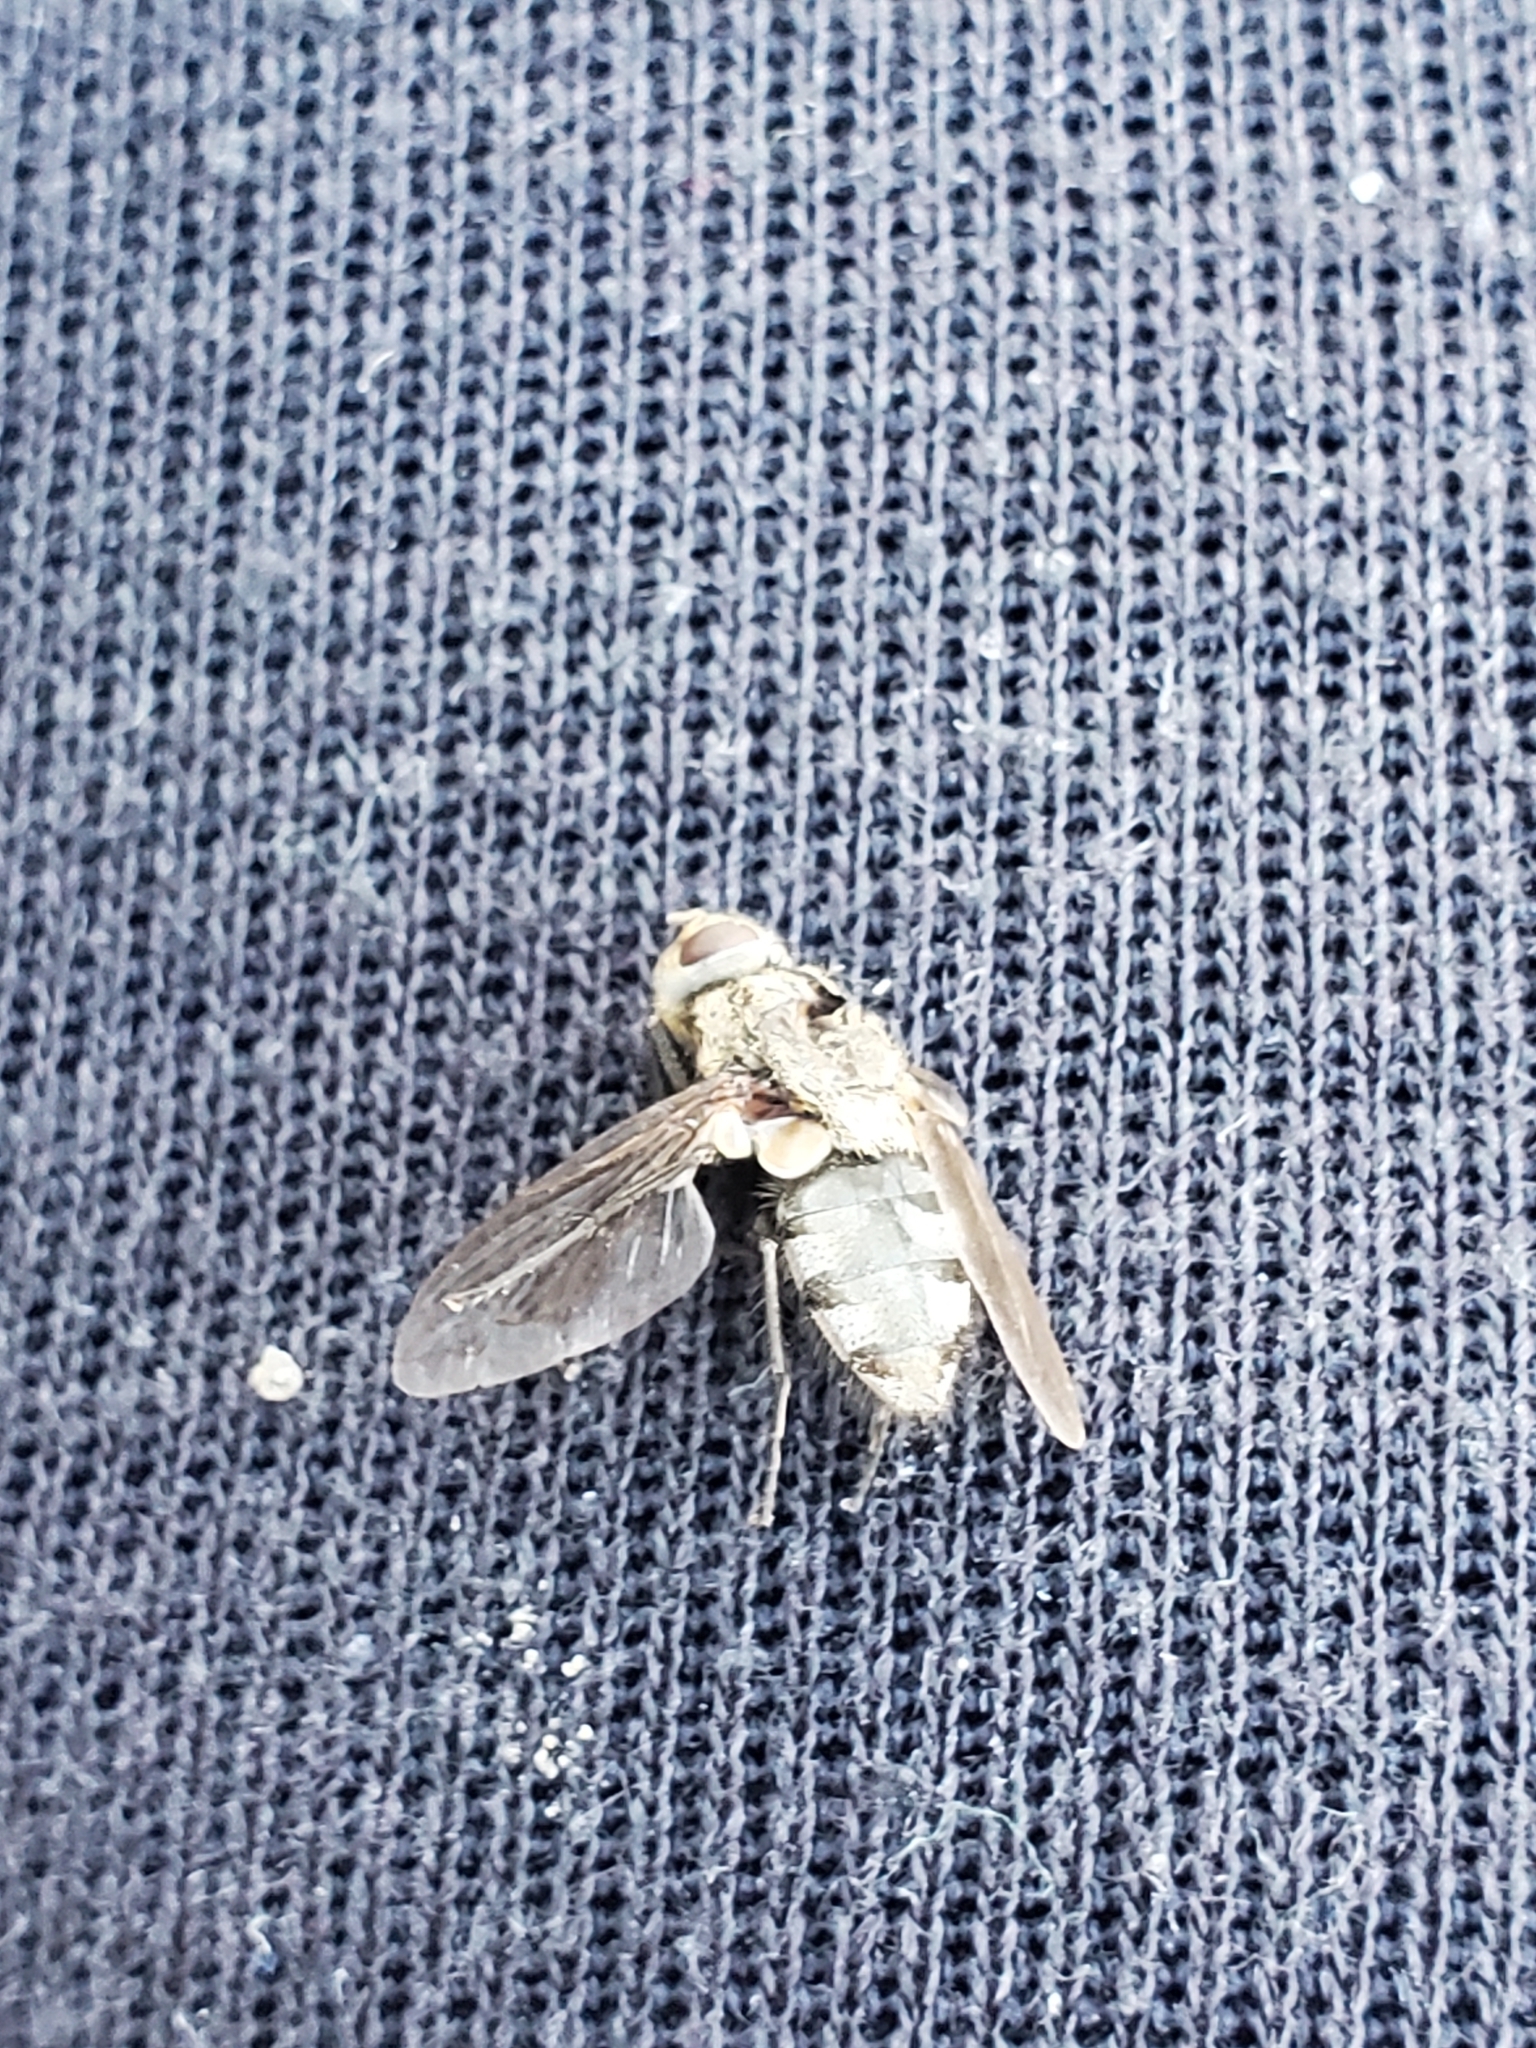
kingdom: Animalia
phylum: Arthropoda
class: Insecta
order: Diptera
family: Polleniidae
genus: Pollenia
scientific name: Pollenia
